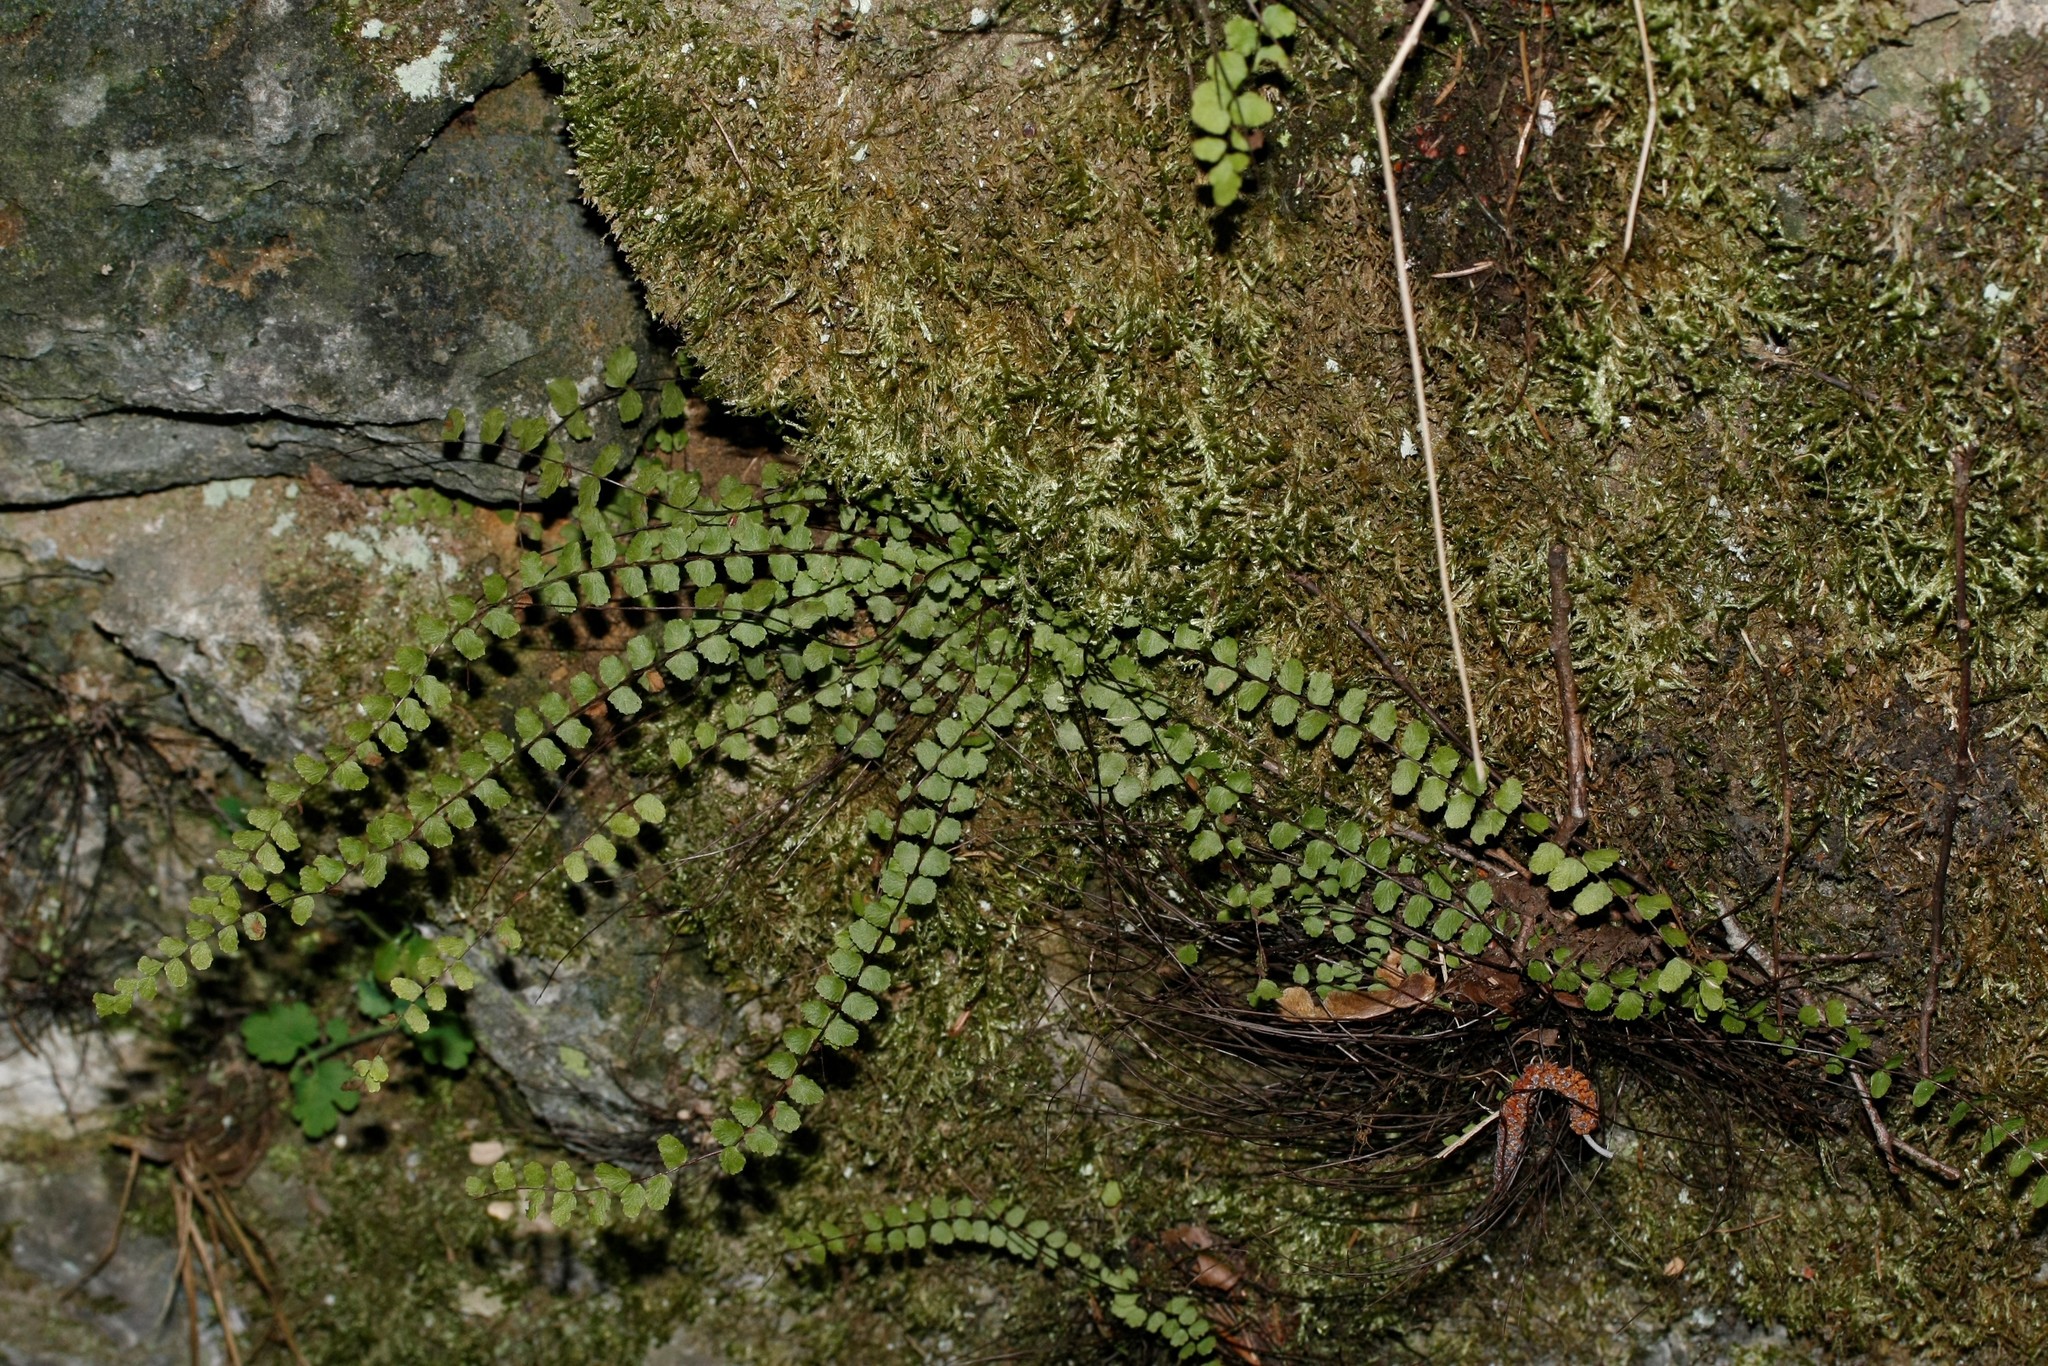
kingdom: Plantae
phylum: Tracheophyta
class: Polypodiopsida
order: Polypodiales
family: Aspleniaceae
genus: Asplenium
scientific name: Asplenium trichomanes
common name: Maidenhair spleenwort
